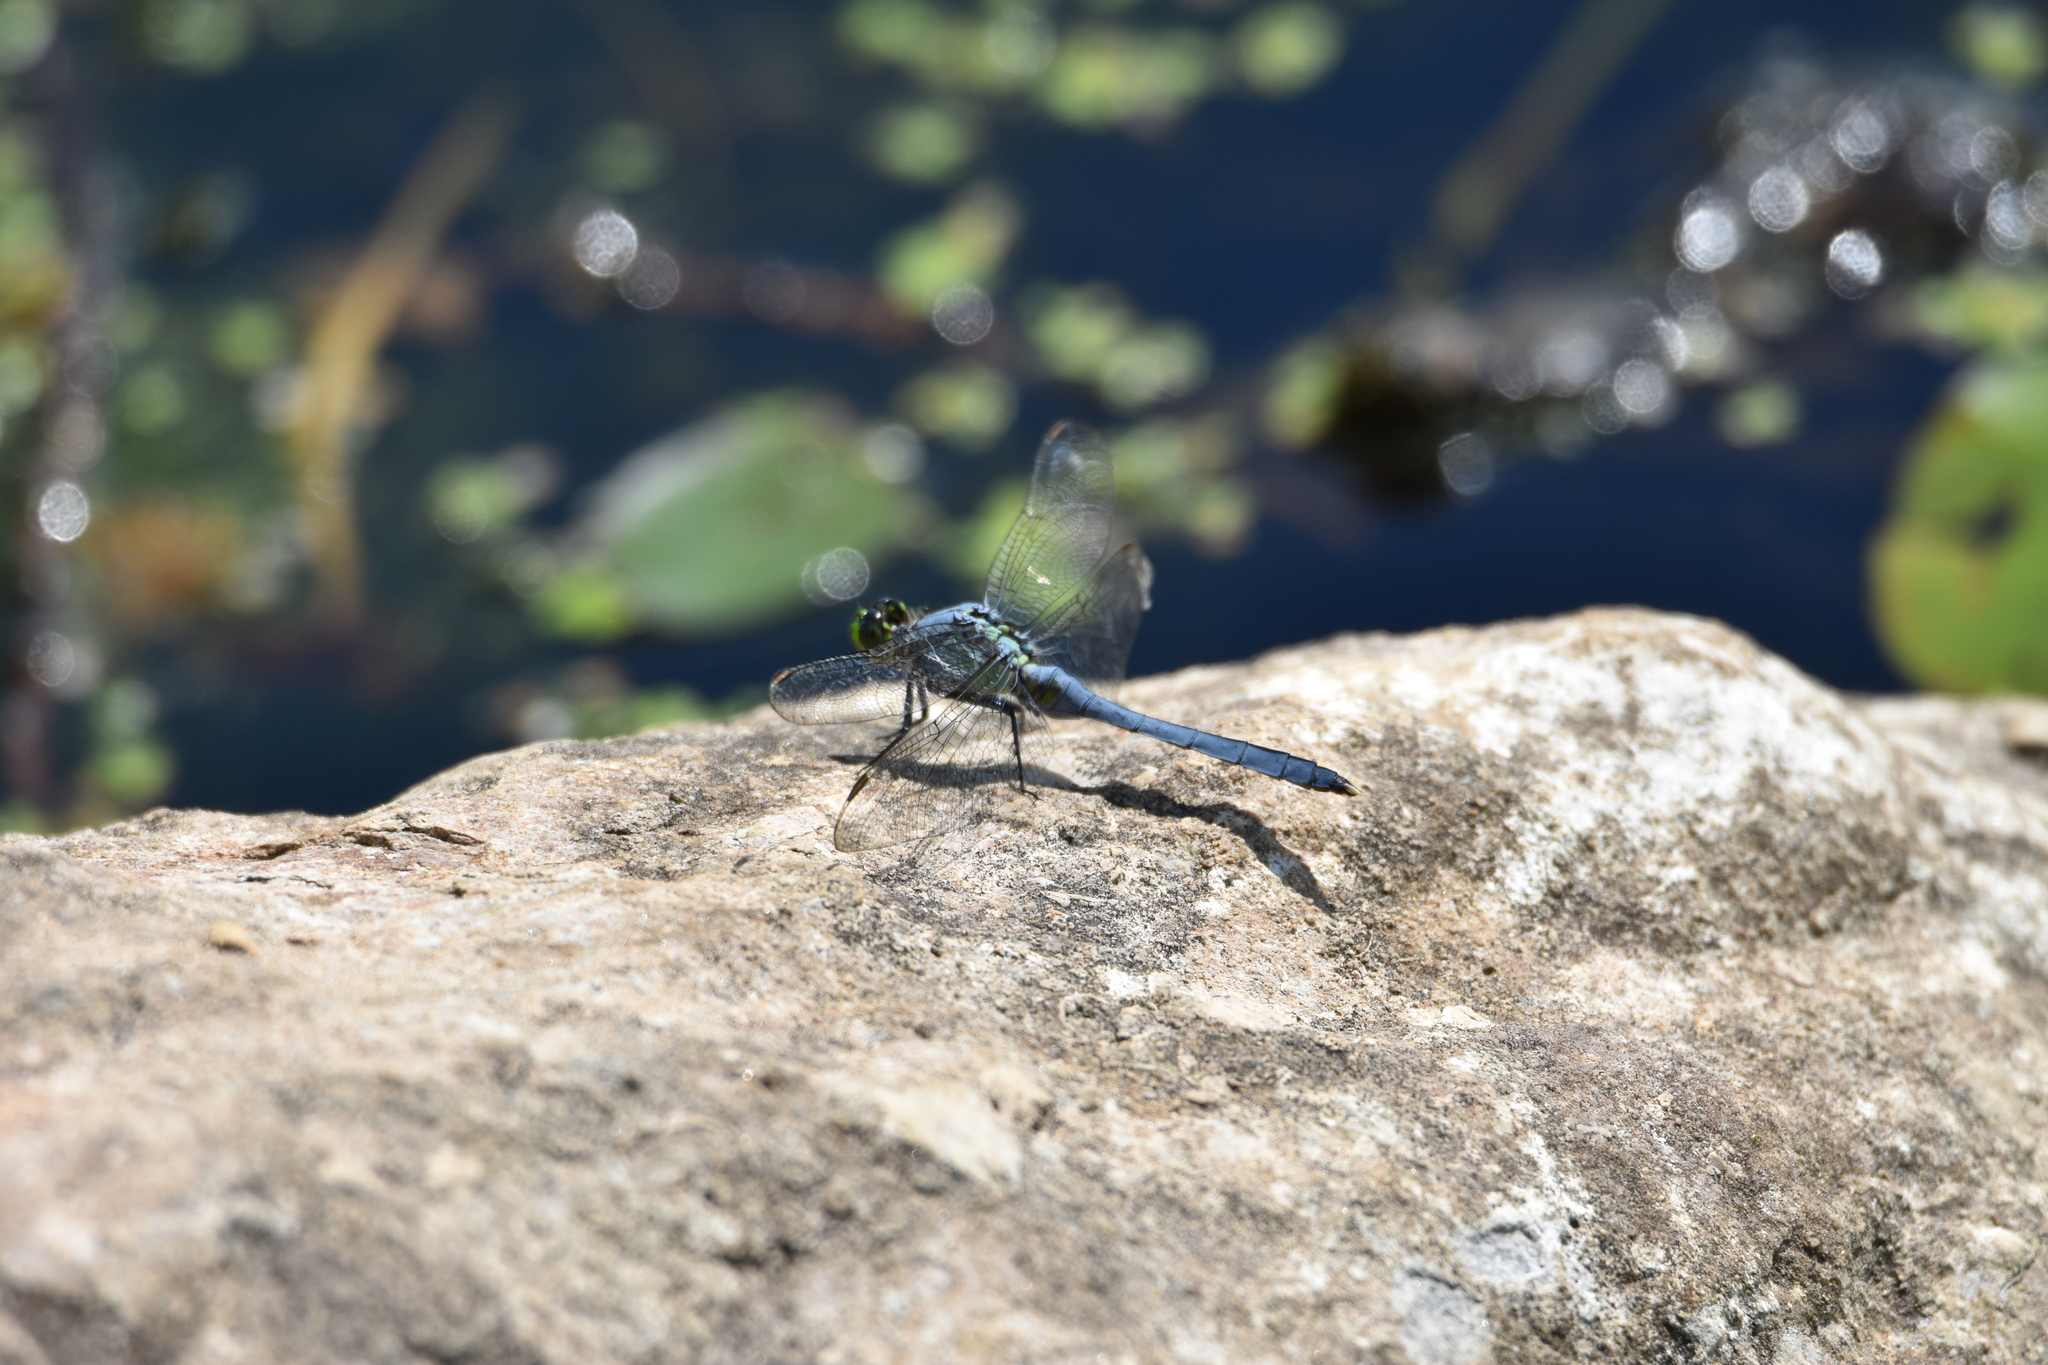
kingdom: Animalia
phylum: Arthropoda
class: Insecta
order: Odonata
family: Libellulidae
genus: Erythemis
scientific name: Erythemis simplicicollis
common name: Eastern pondhawk
